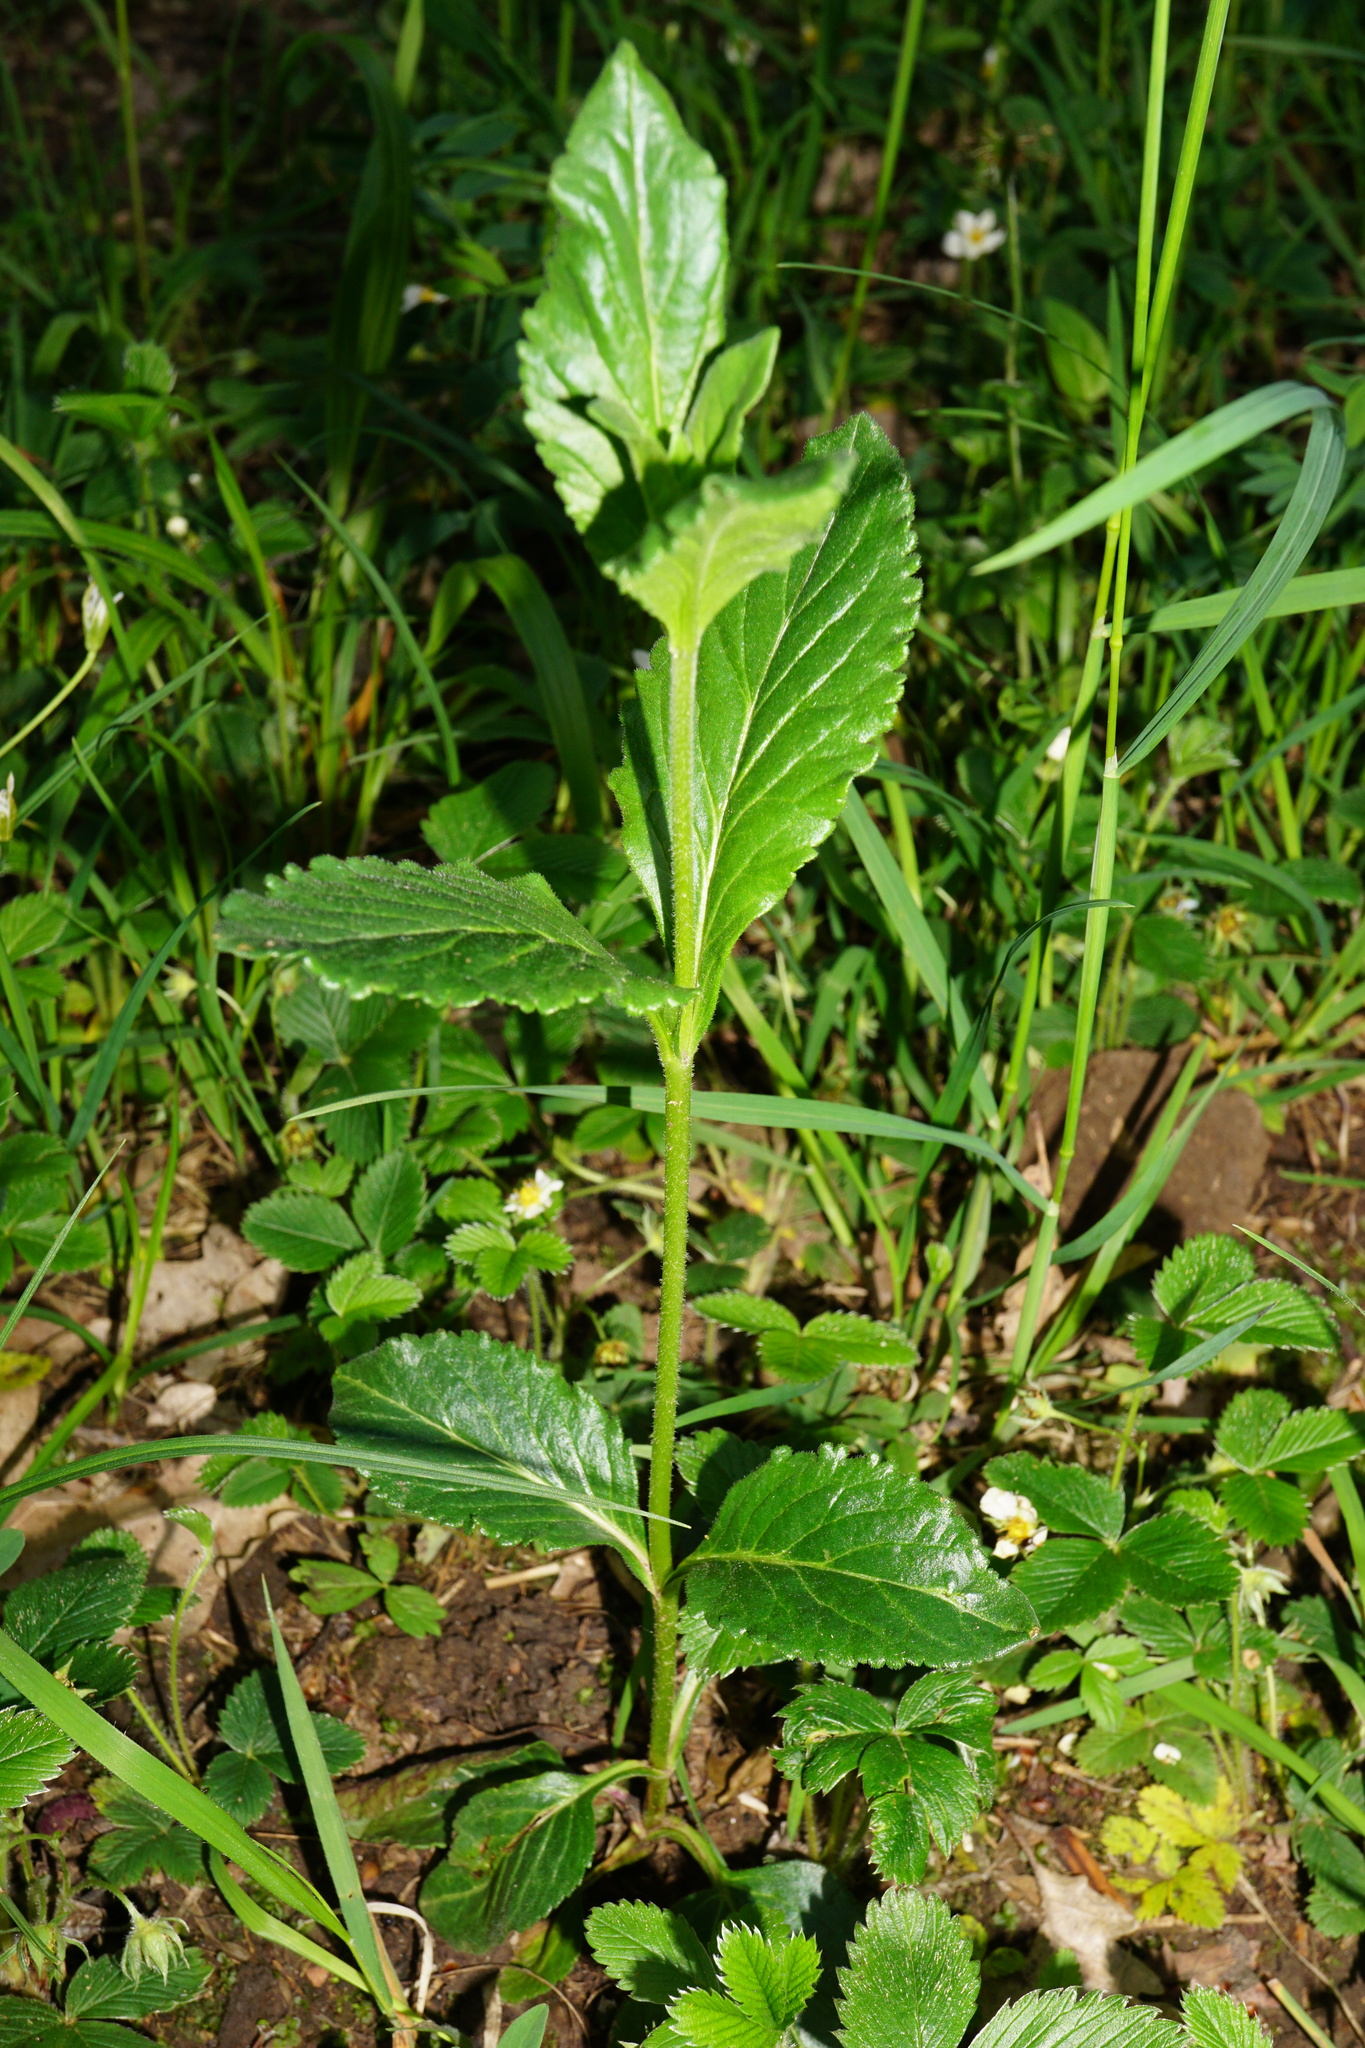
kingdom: Plantae
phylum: Tracheophyta
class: Magnoliopsida
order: Lamiales
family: Plantaginaceae
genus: Veronica
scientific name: Veronica orchidea
